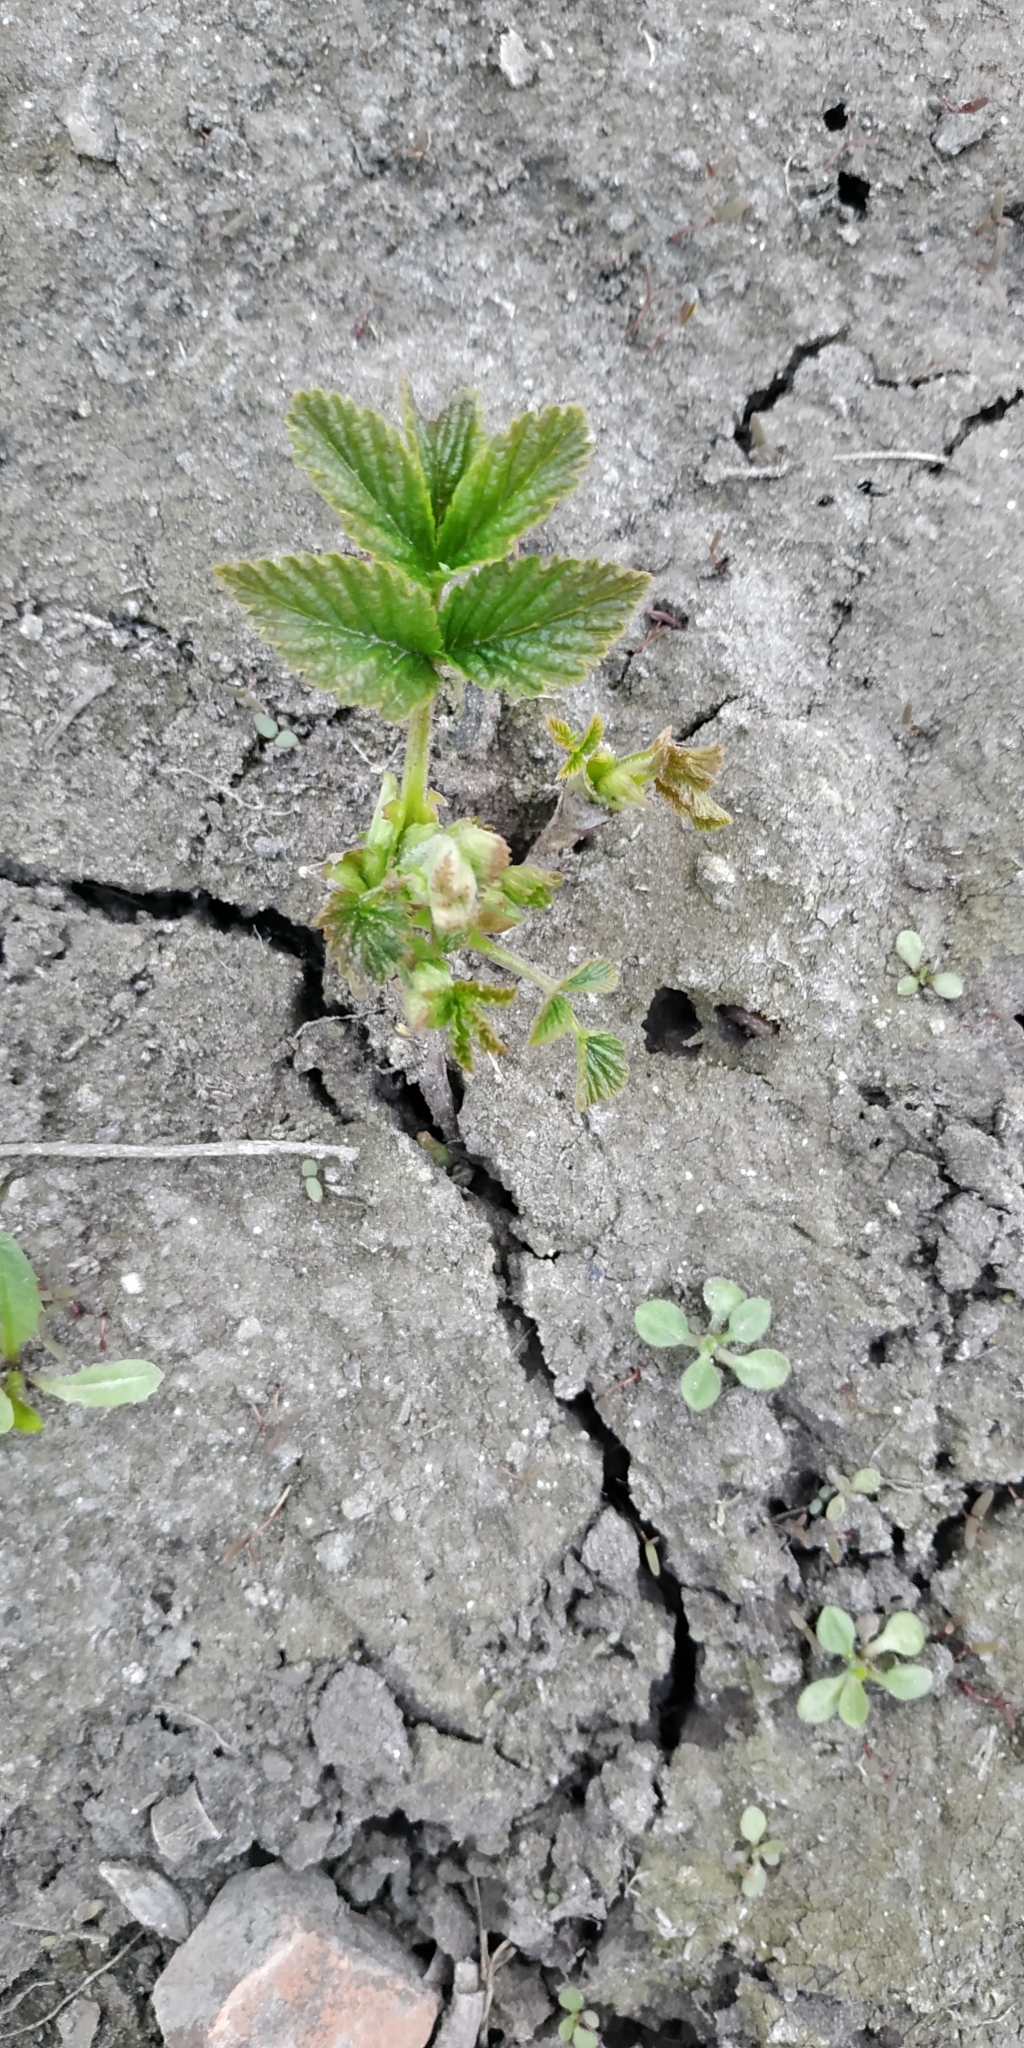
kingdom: Plantae
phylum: Tracheophyta
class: Magnoliopsida
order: Rosales
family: Rosaceae
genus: Rubus
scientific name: Rubus idaeus
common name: Raspberry
